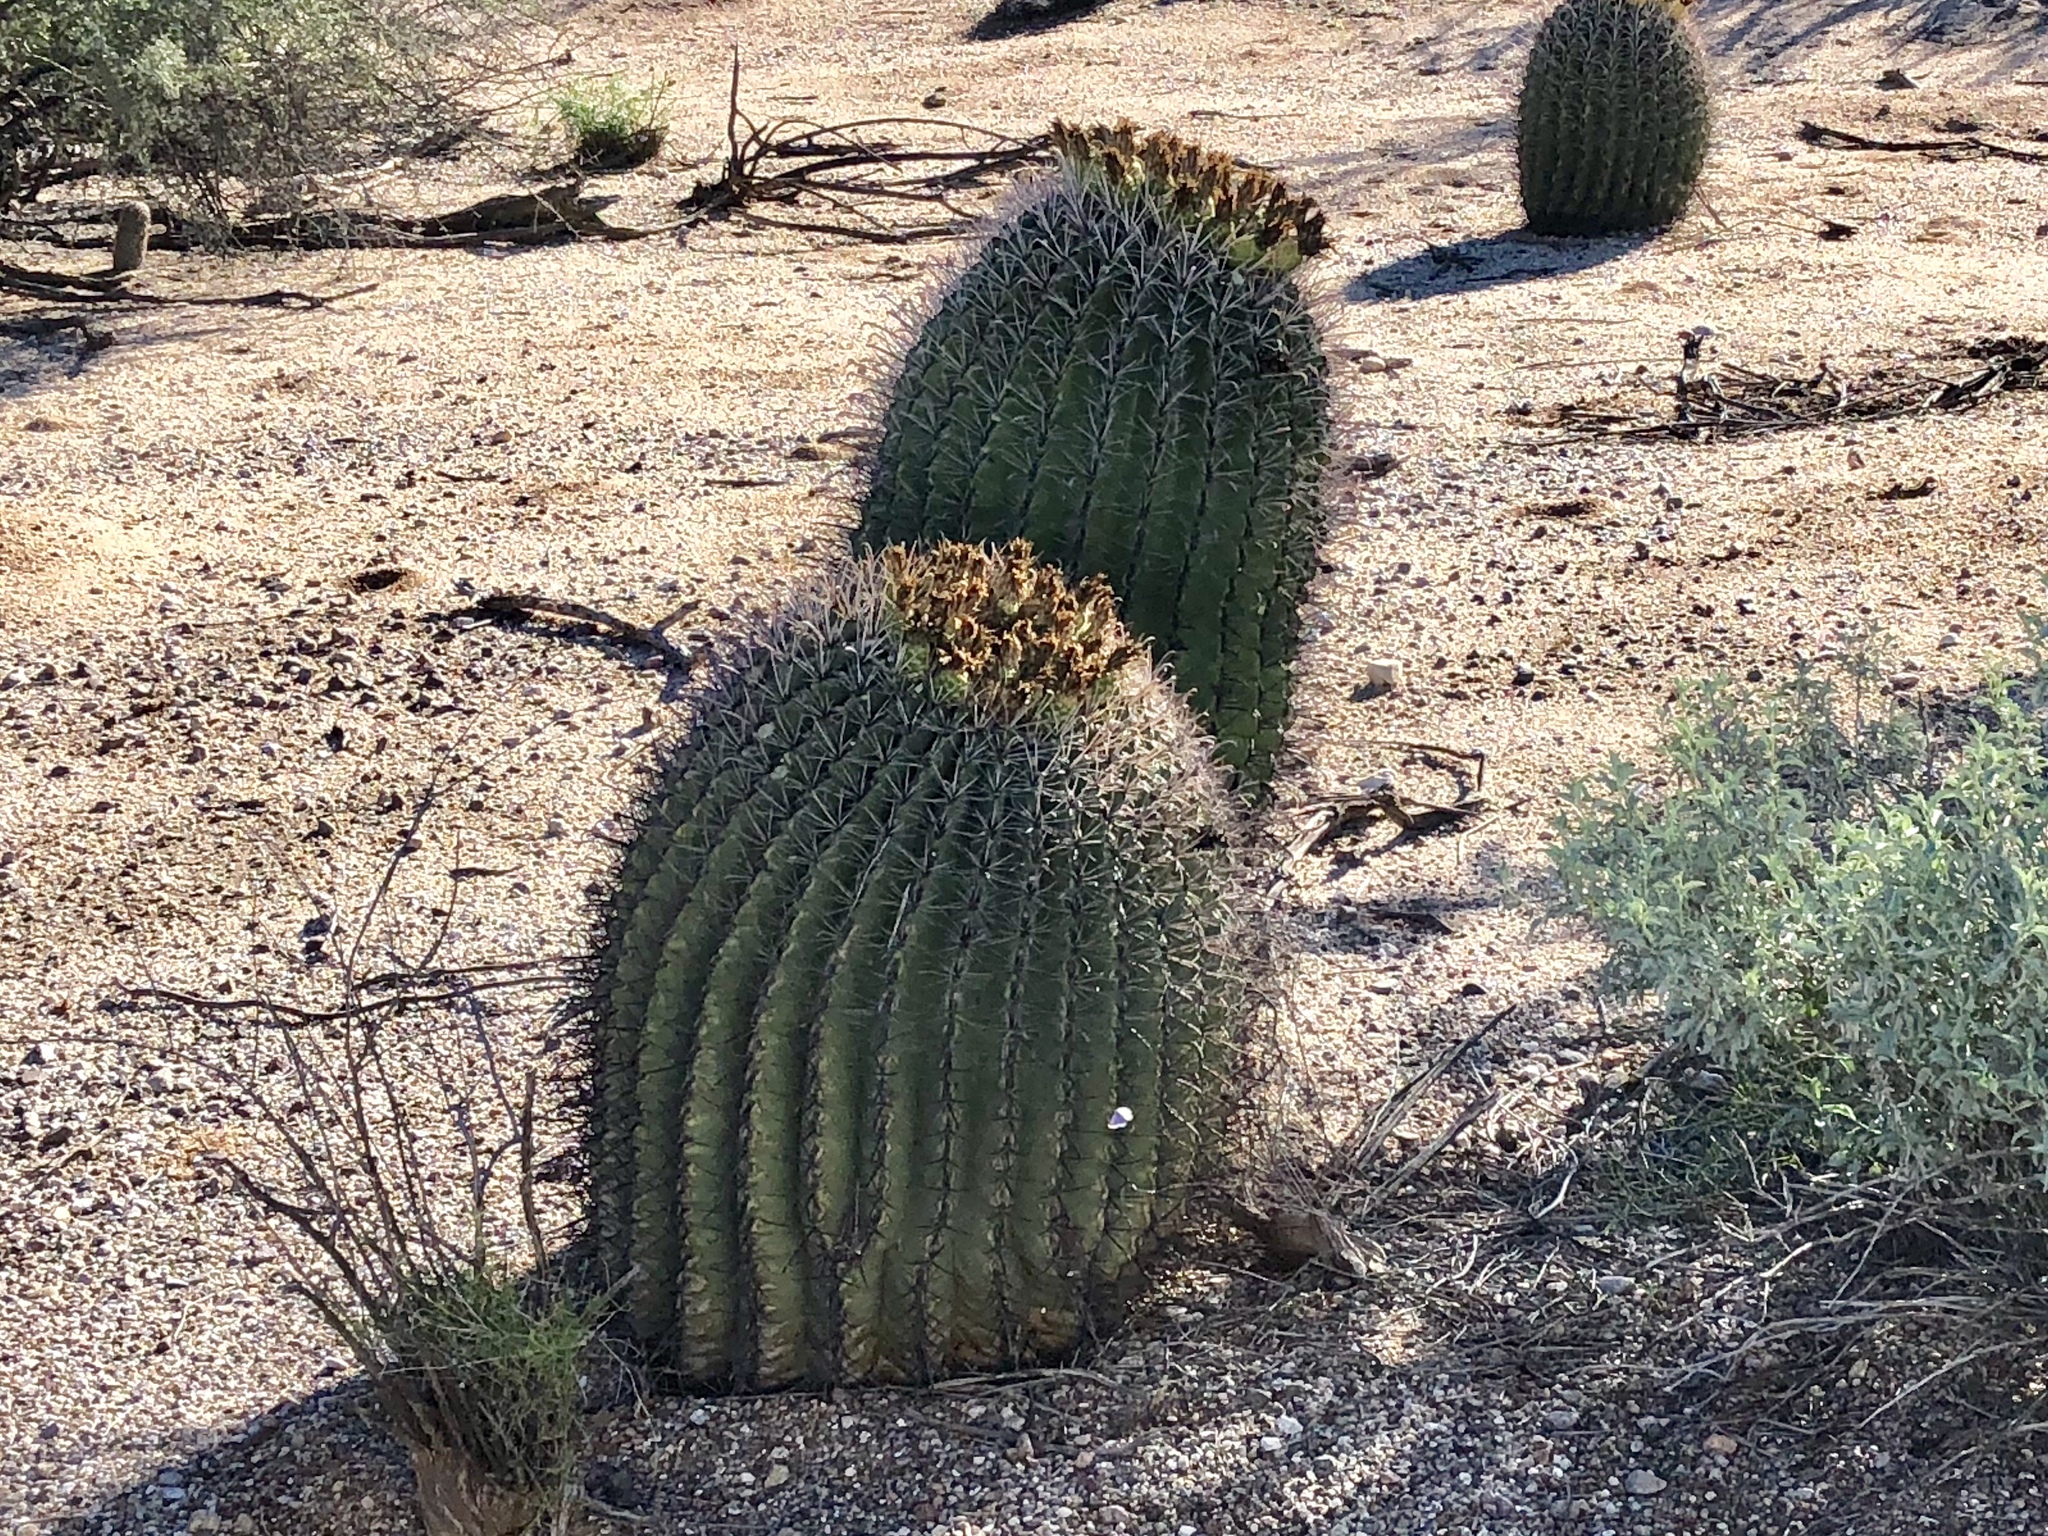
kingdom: Plantae
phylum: Tracheophyta
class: Magnoliopsida
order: Caryophyllales
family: Cactaceae
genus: Ferocactus
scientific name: Ferocactus wislizeni
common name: Candy barrel cactus
